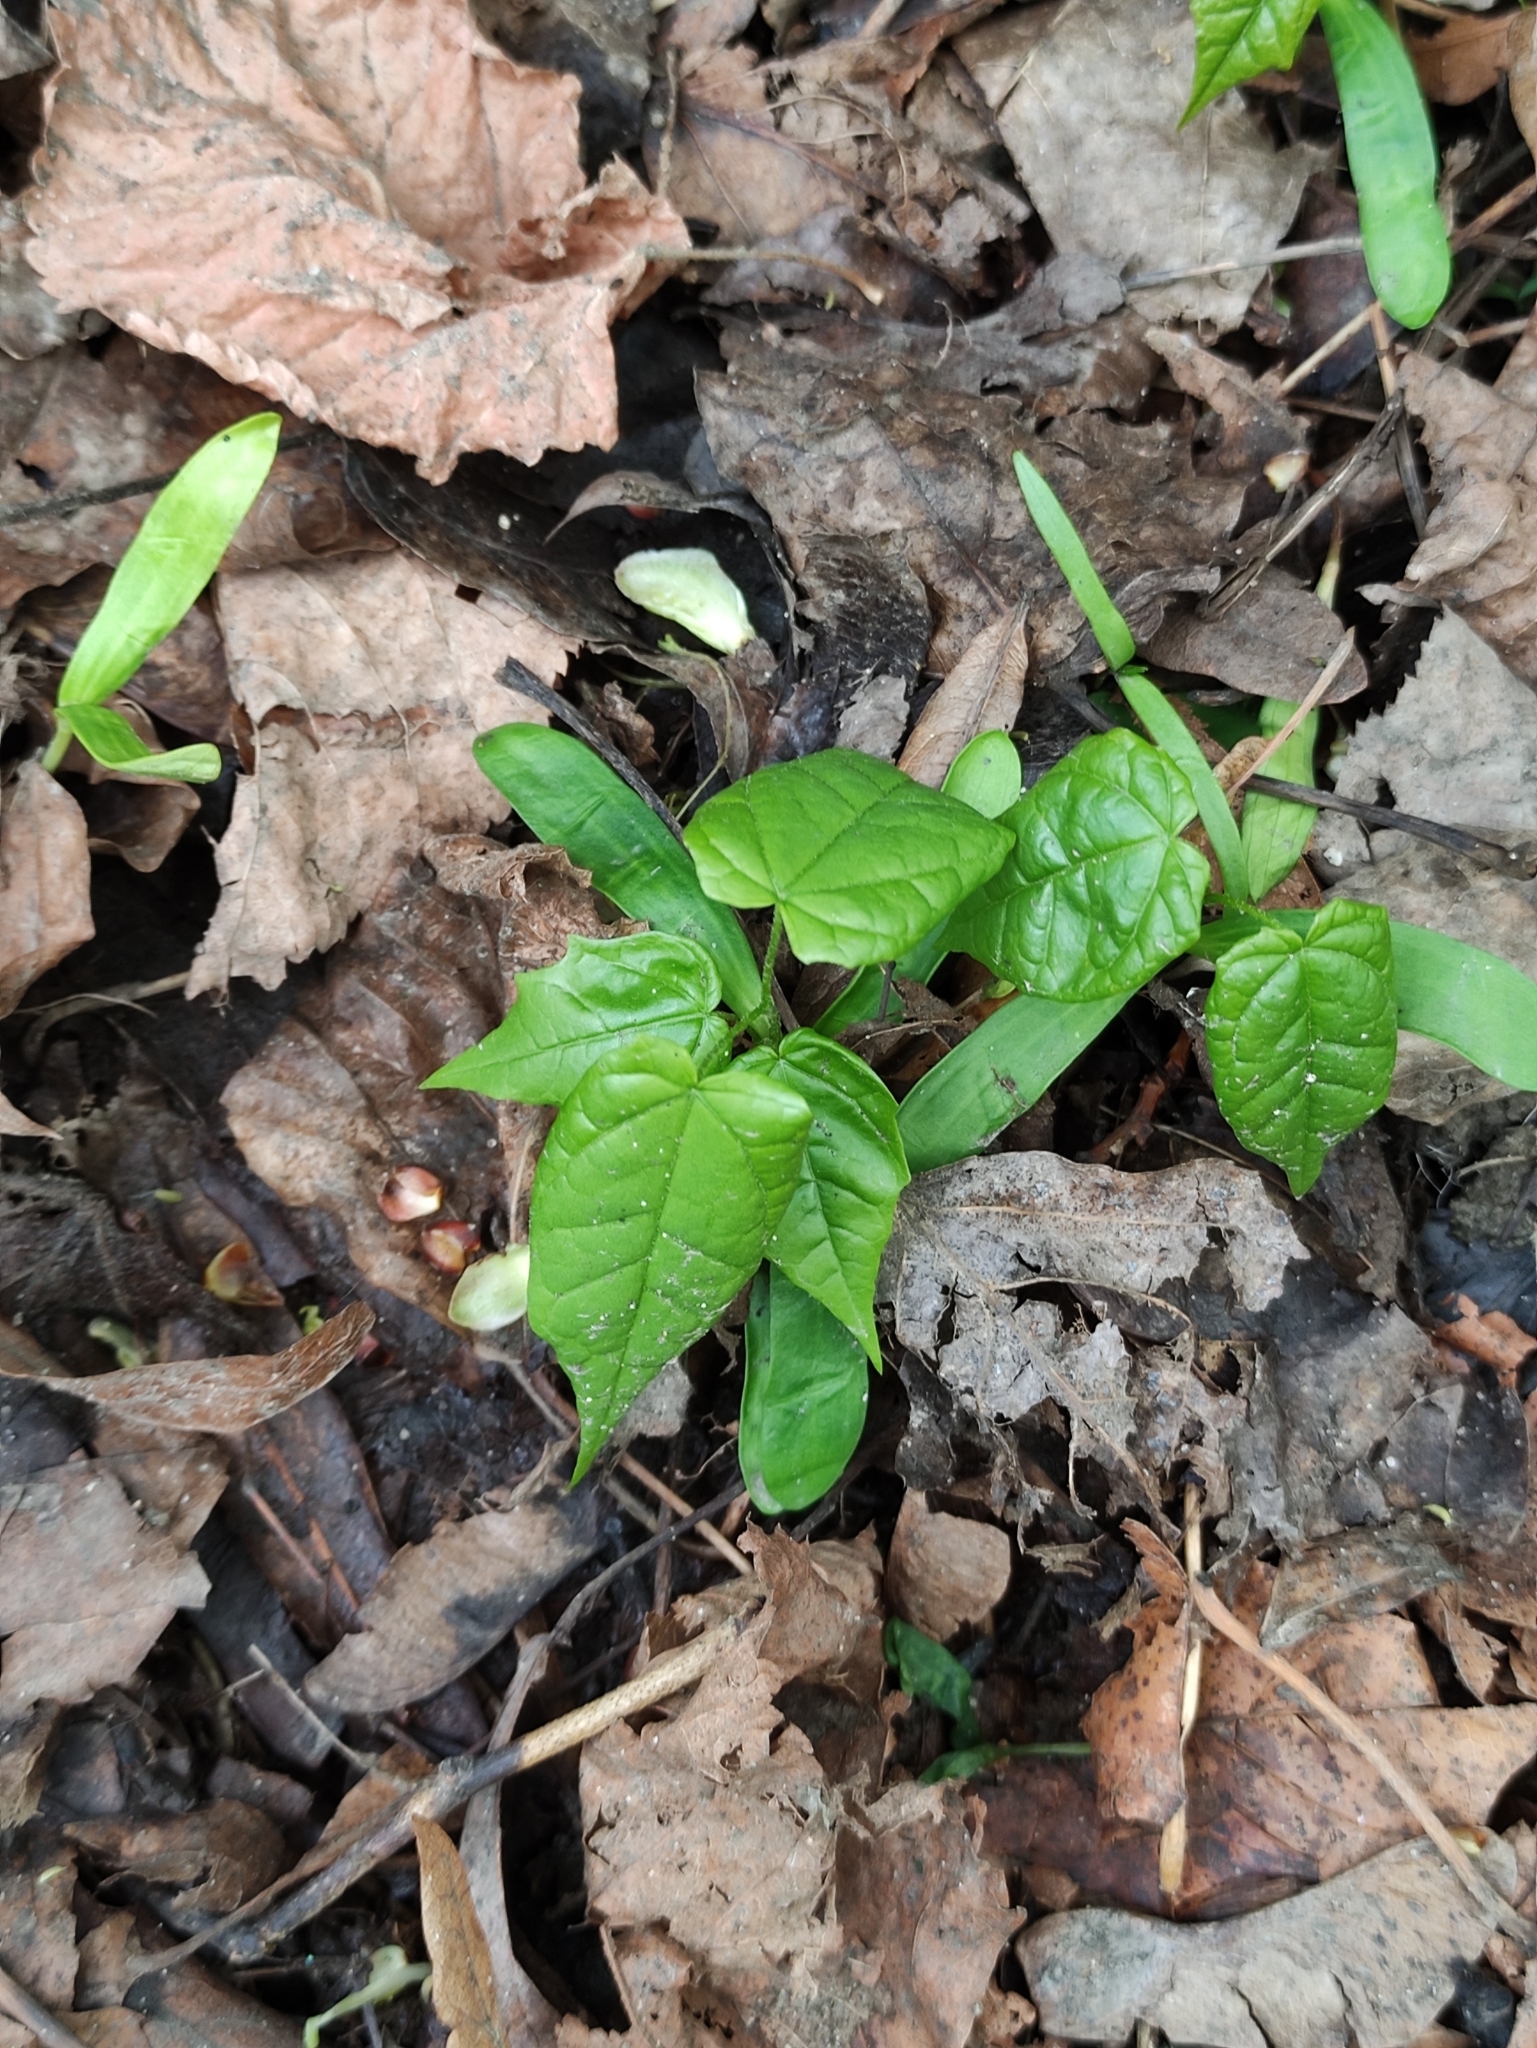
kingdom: Plantae
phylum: Tracheophyta
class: Magnoliopsida
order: Malvales
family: Malvaceae
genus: Tilia
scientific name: Tilia cordata
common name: Small-leaved lime
